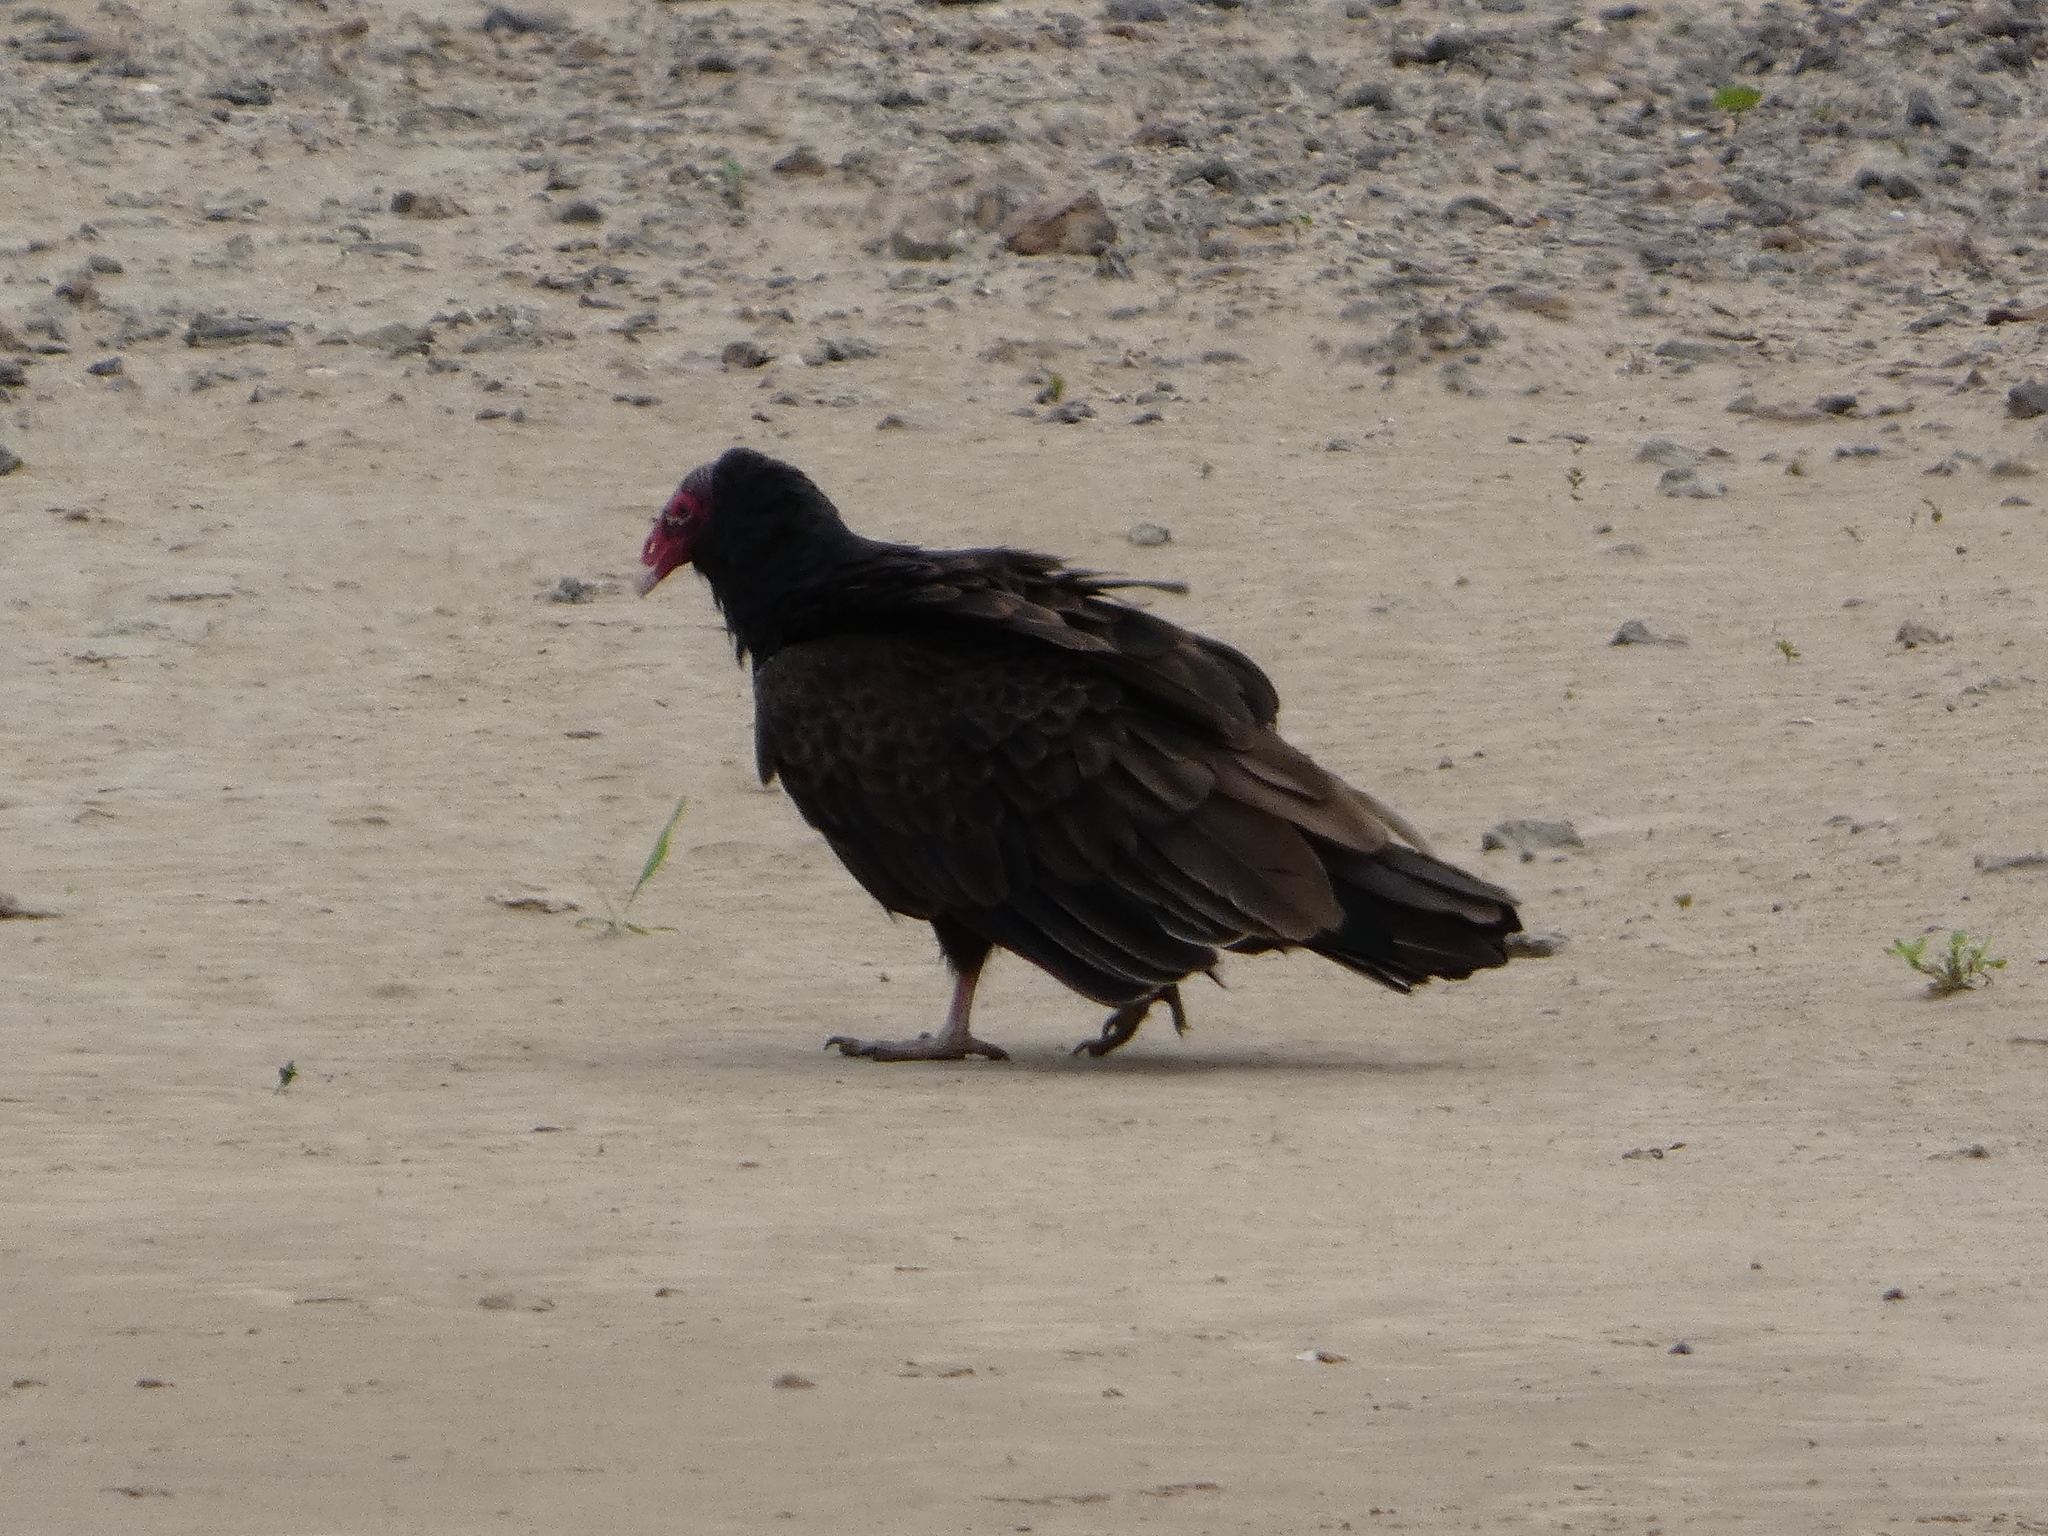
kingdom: Animalia
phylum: Chordata
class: Aves
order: Accipitriformes
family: Cathartidae
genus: Cathartes
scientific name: Cathartes aura
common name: Turkey vulture
